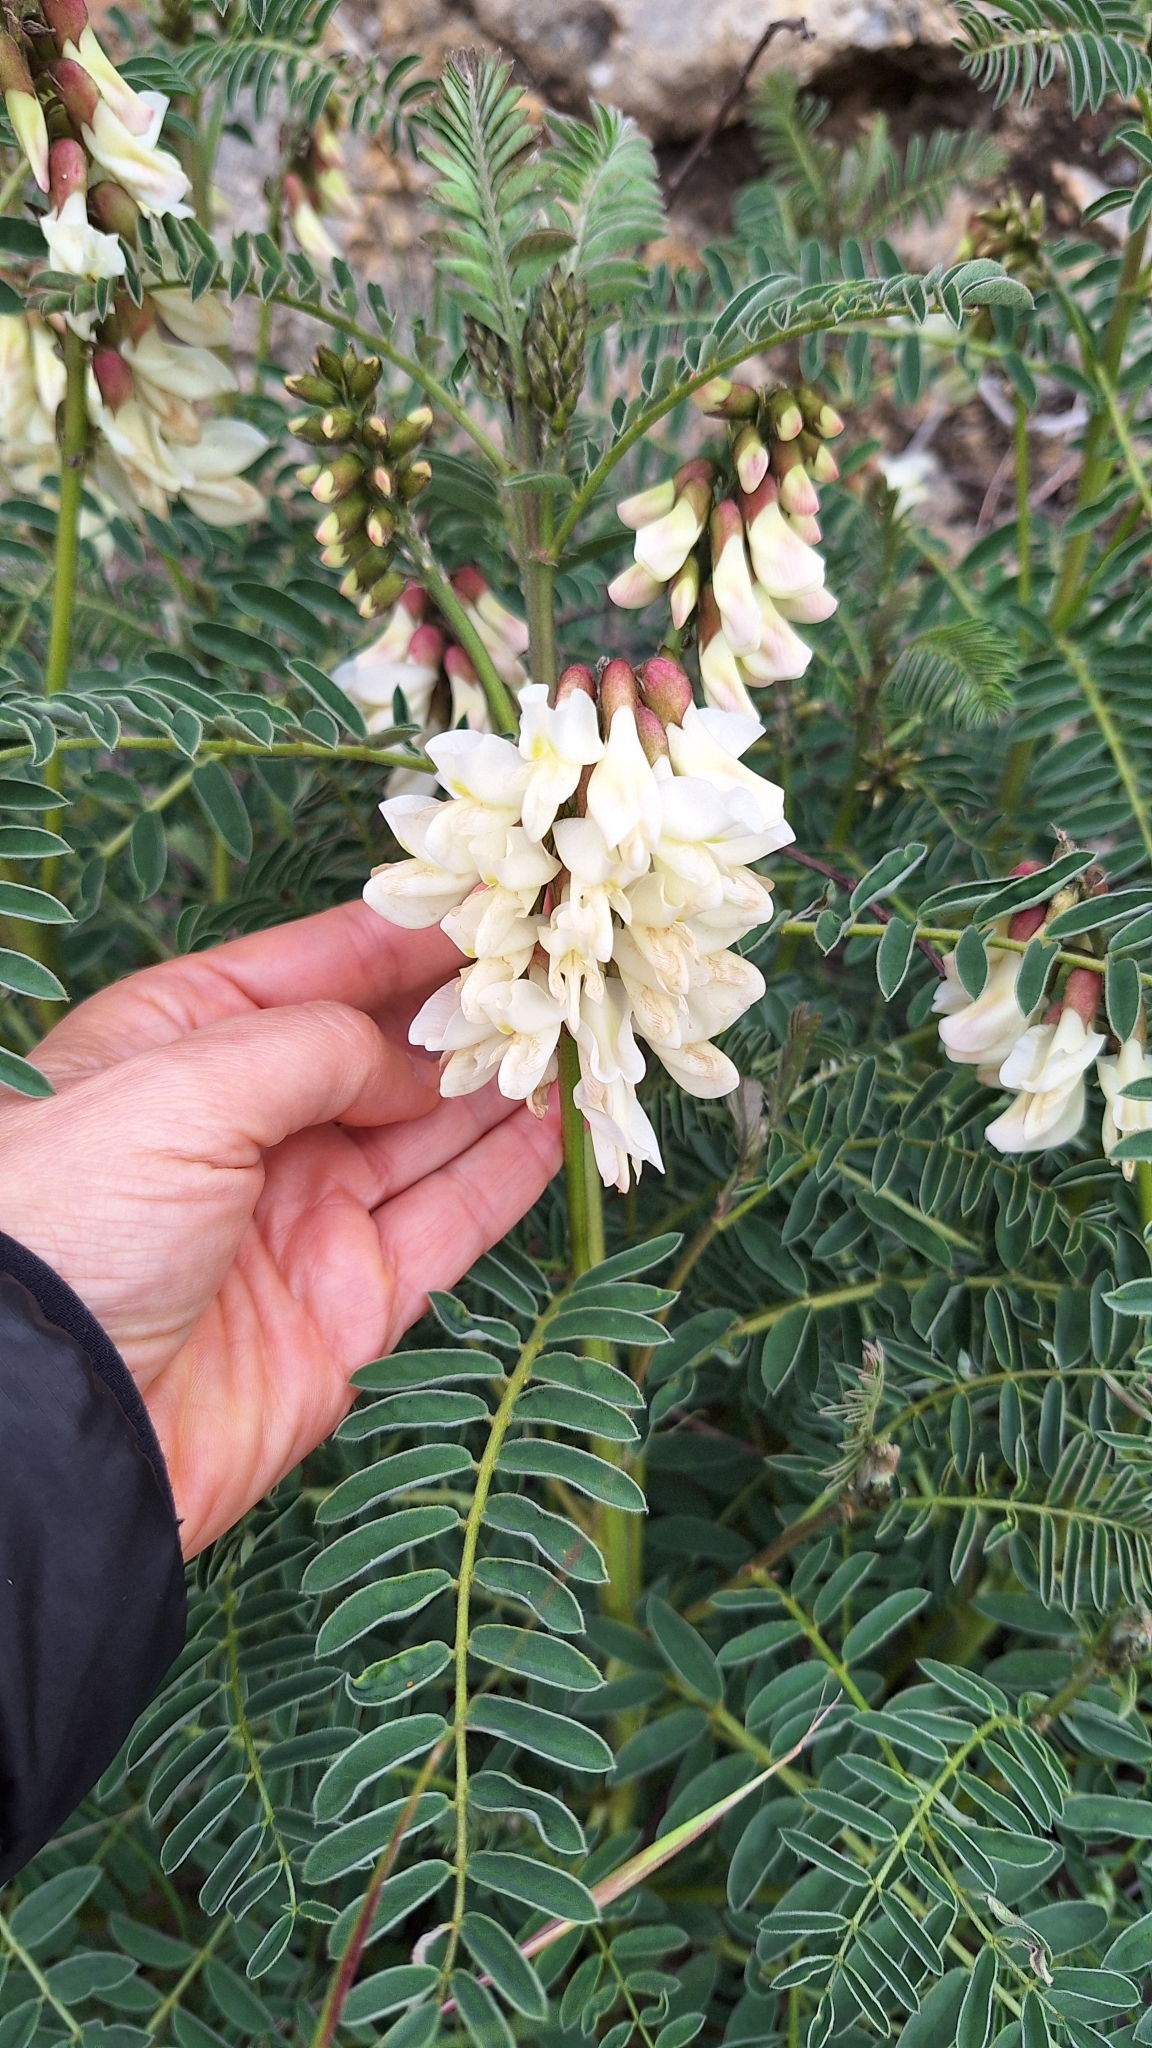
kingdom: Plantae
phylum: Tracheophyta
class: Magnoliopsida
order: Fabales
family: Fabaceae
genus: Erophaca
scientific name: Erophaca baetica
